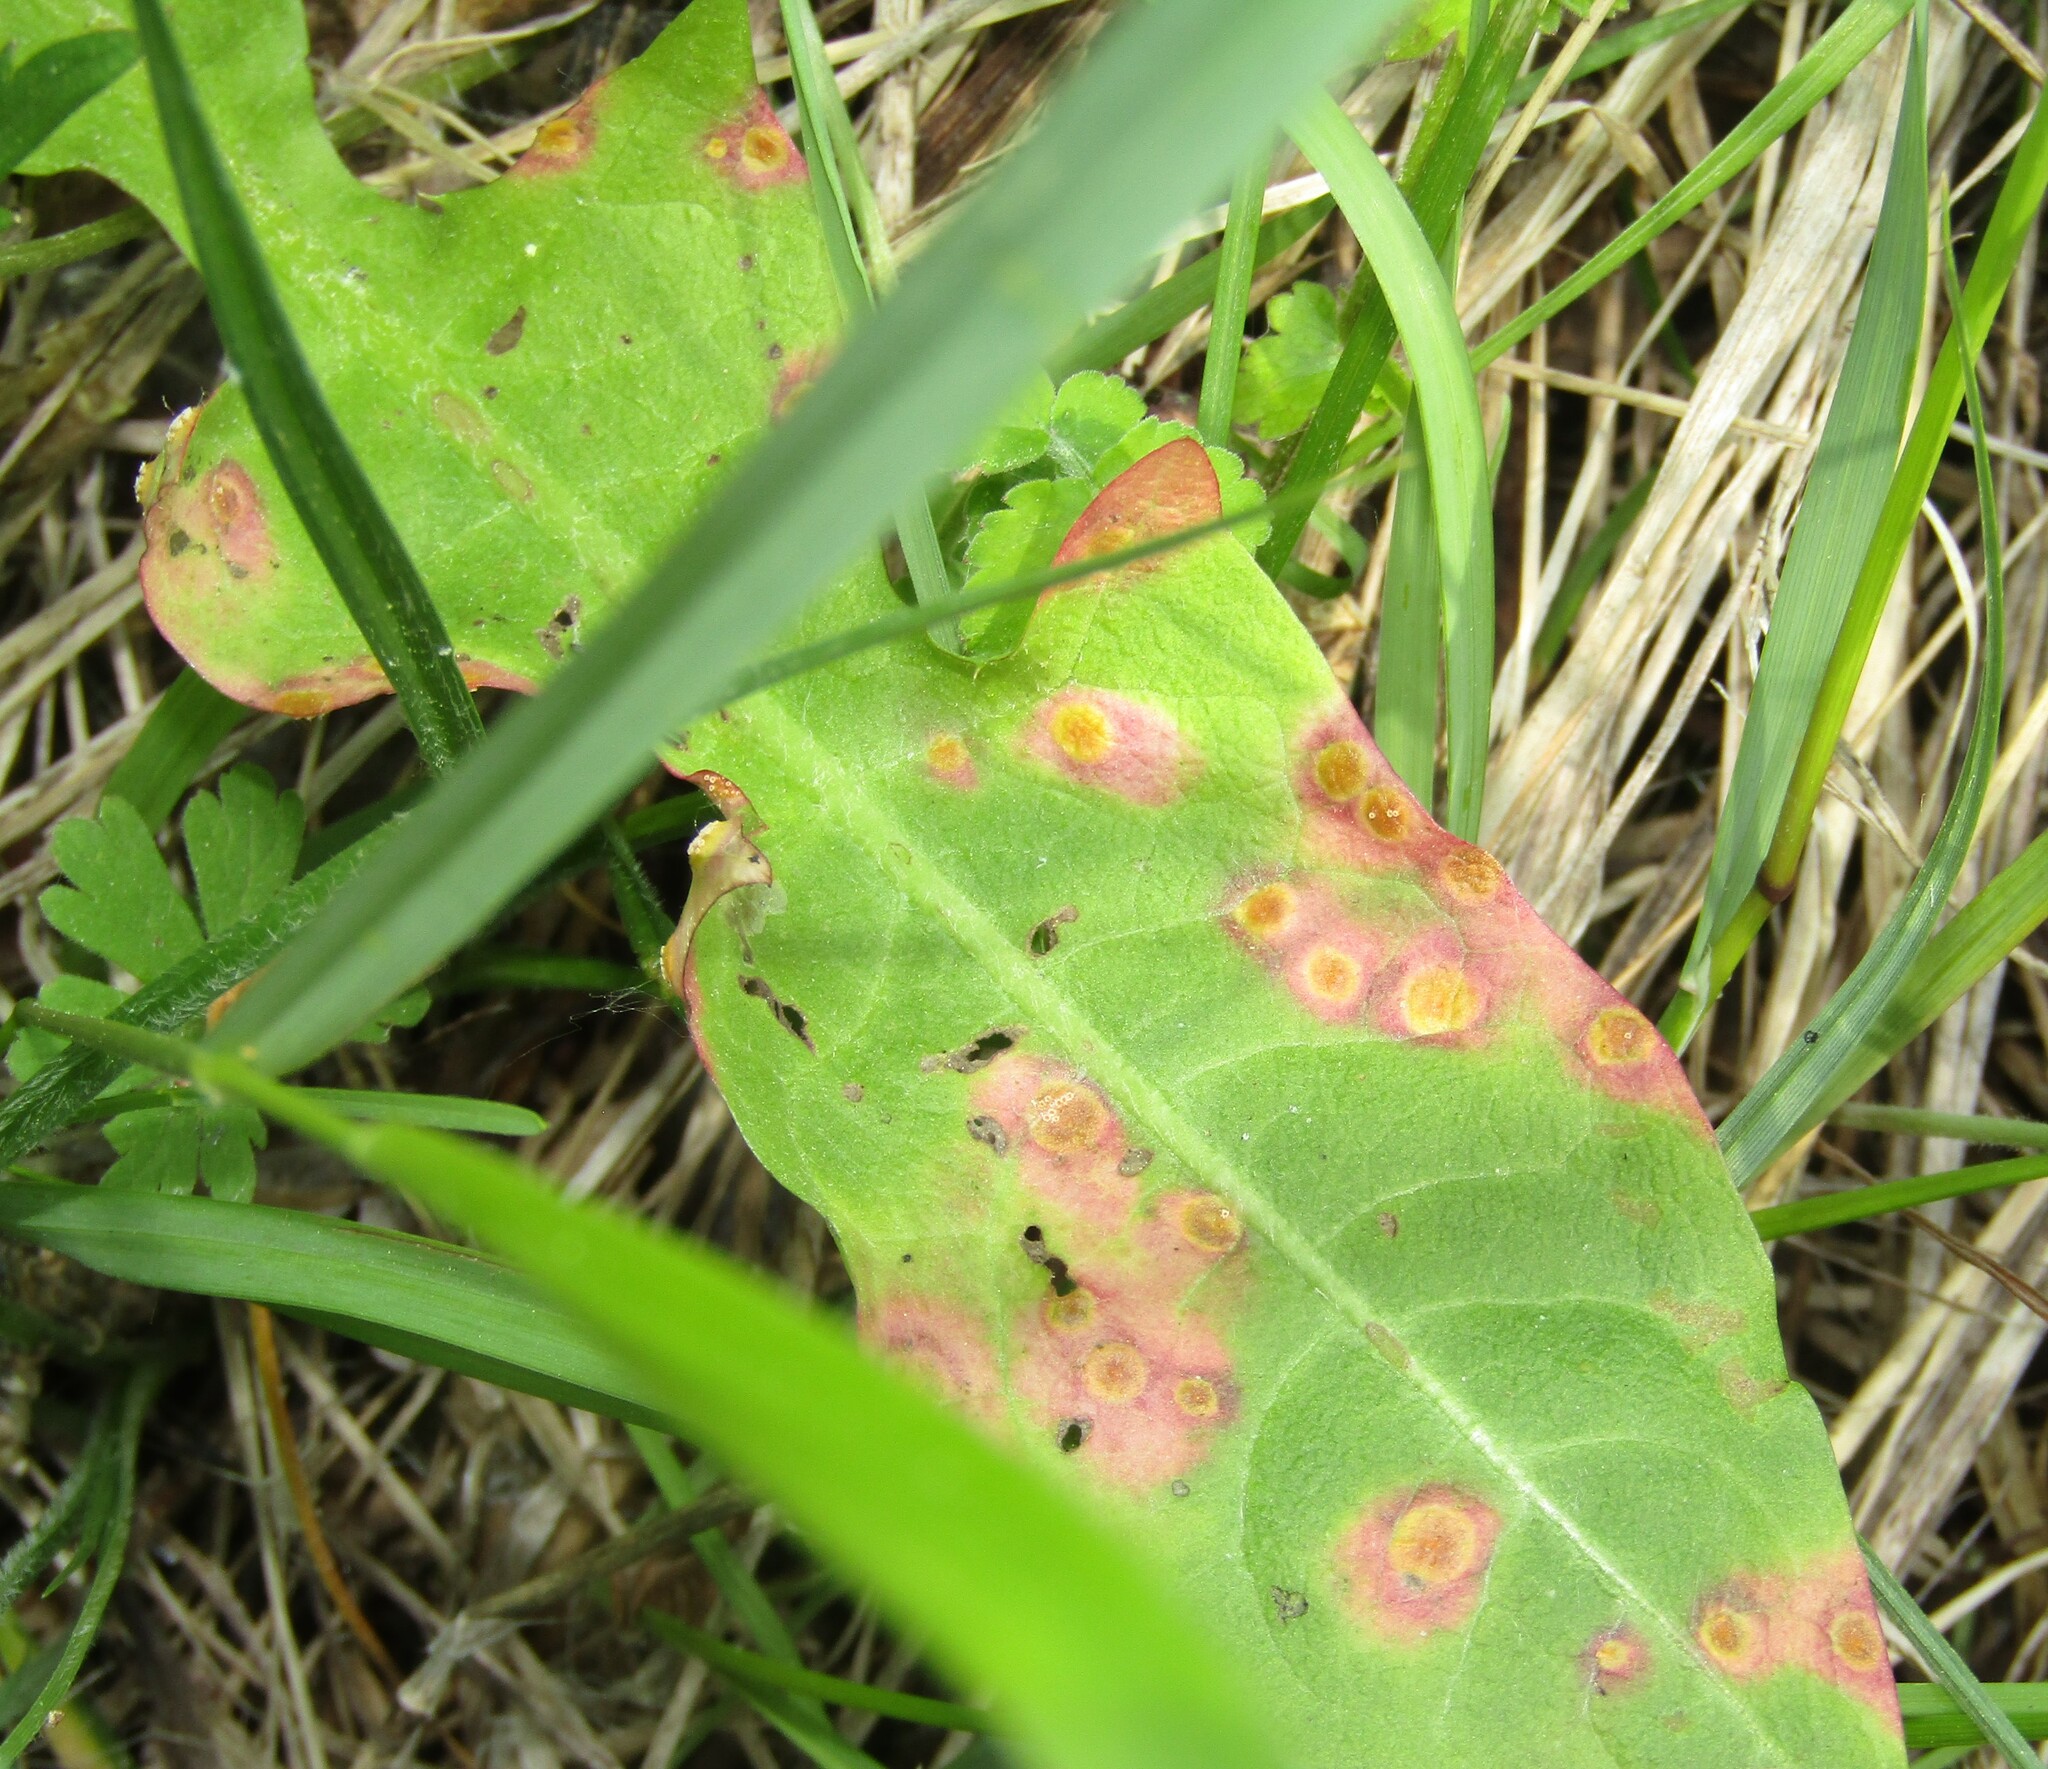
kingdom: Fungi
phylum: Basidiomycota
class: Pucciniomycetes
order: Pucciniales
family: Pucciniaceae
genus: Puccinia
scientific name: Puccinia dioicae
